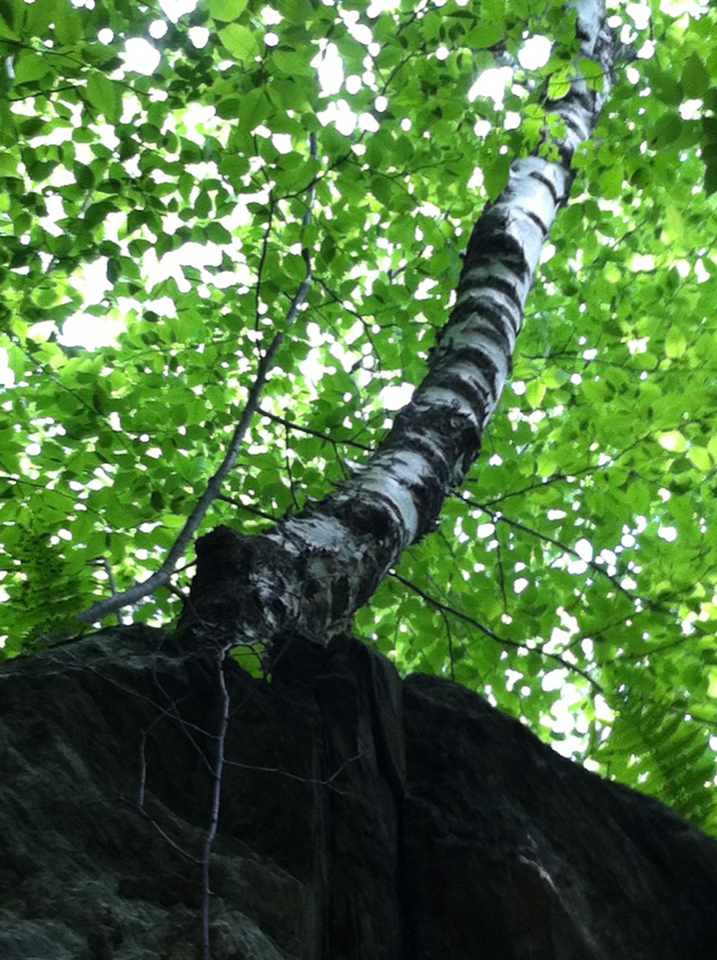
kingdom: Plantae
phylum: Tracheophyta
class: Magnoliopsida
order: Fagales
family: Betulaceae
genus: Betula
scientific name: Betula papyrifera
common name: Paper birch
